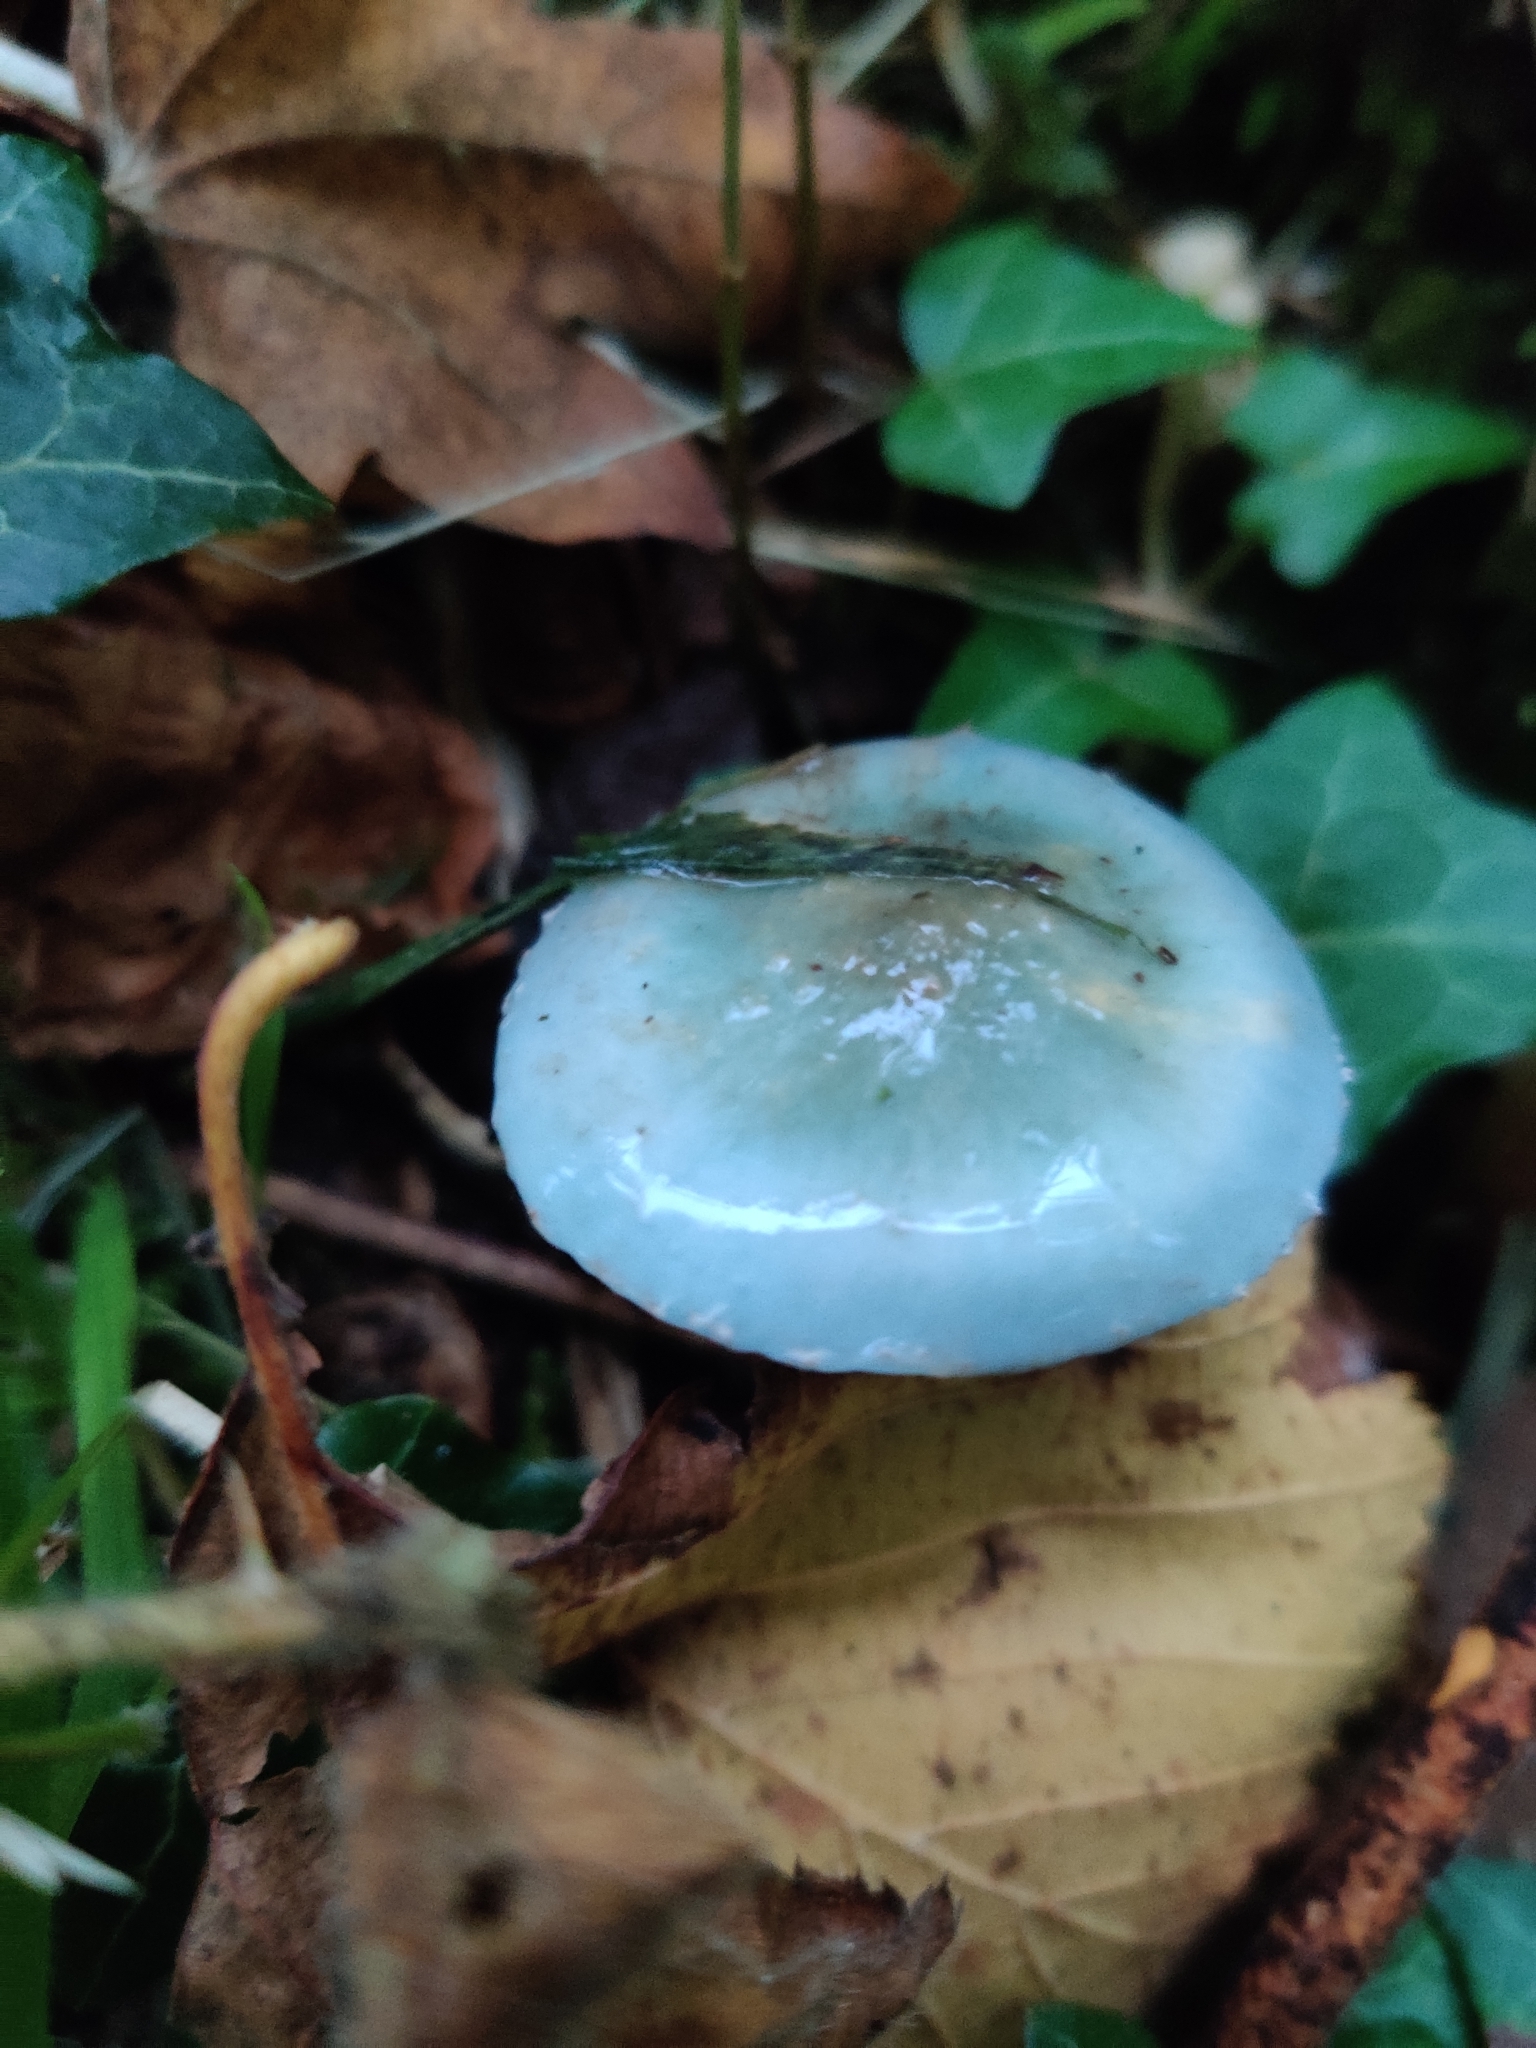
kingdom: Fungi
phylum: Basidiomycota
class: Agaricomycetes
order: Agaricales
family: Strophariaceae
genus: Stropharia
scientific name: Stropharia aeruginosa
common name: Verdigris roundhead
